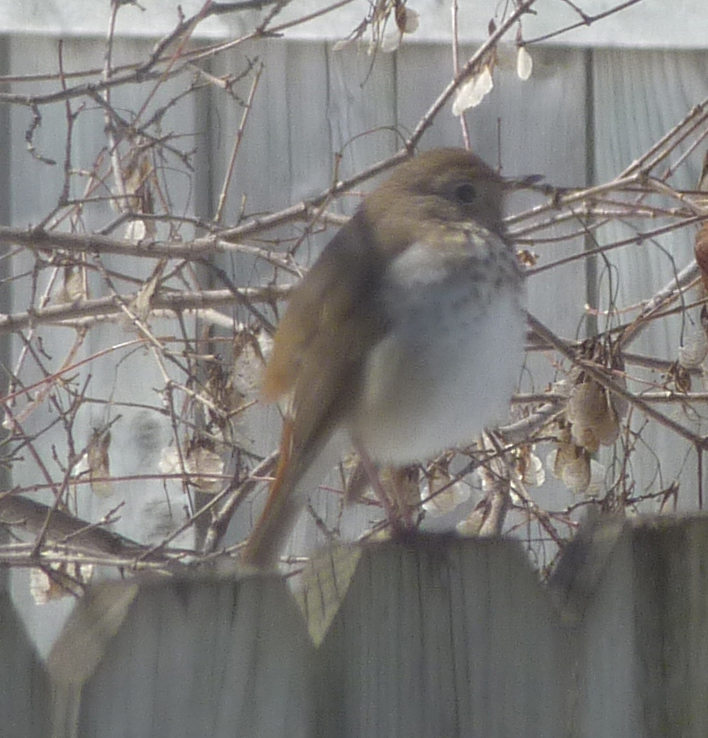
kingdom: Animalia
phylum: Chordata
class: Aves
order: Passeriformes
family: Turdidae
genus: Catharus
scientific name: Catharus guttatus
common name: Hermit thrush
